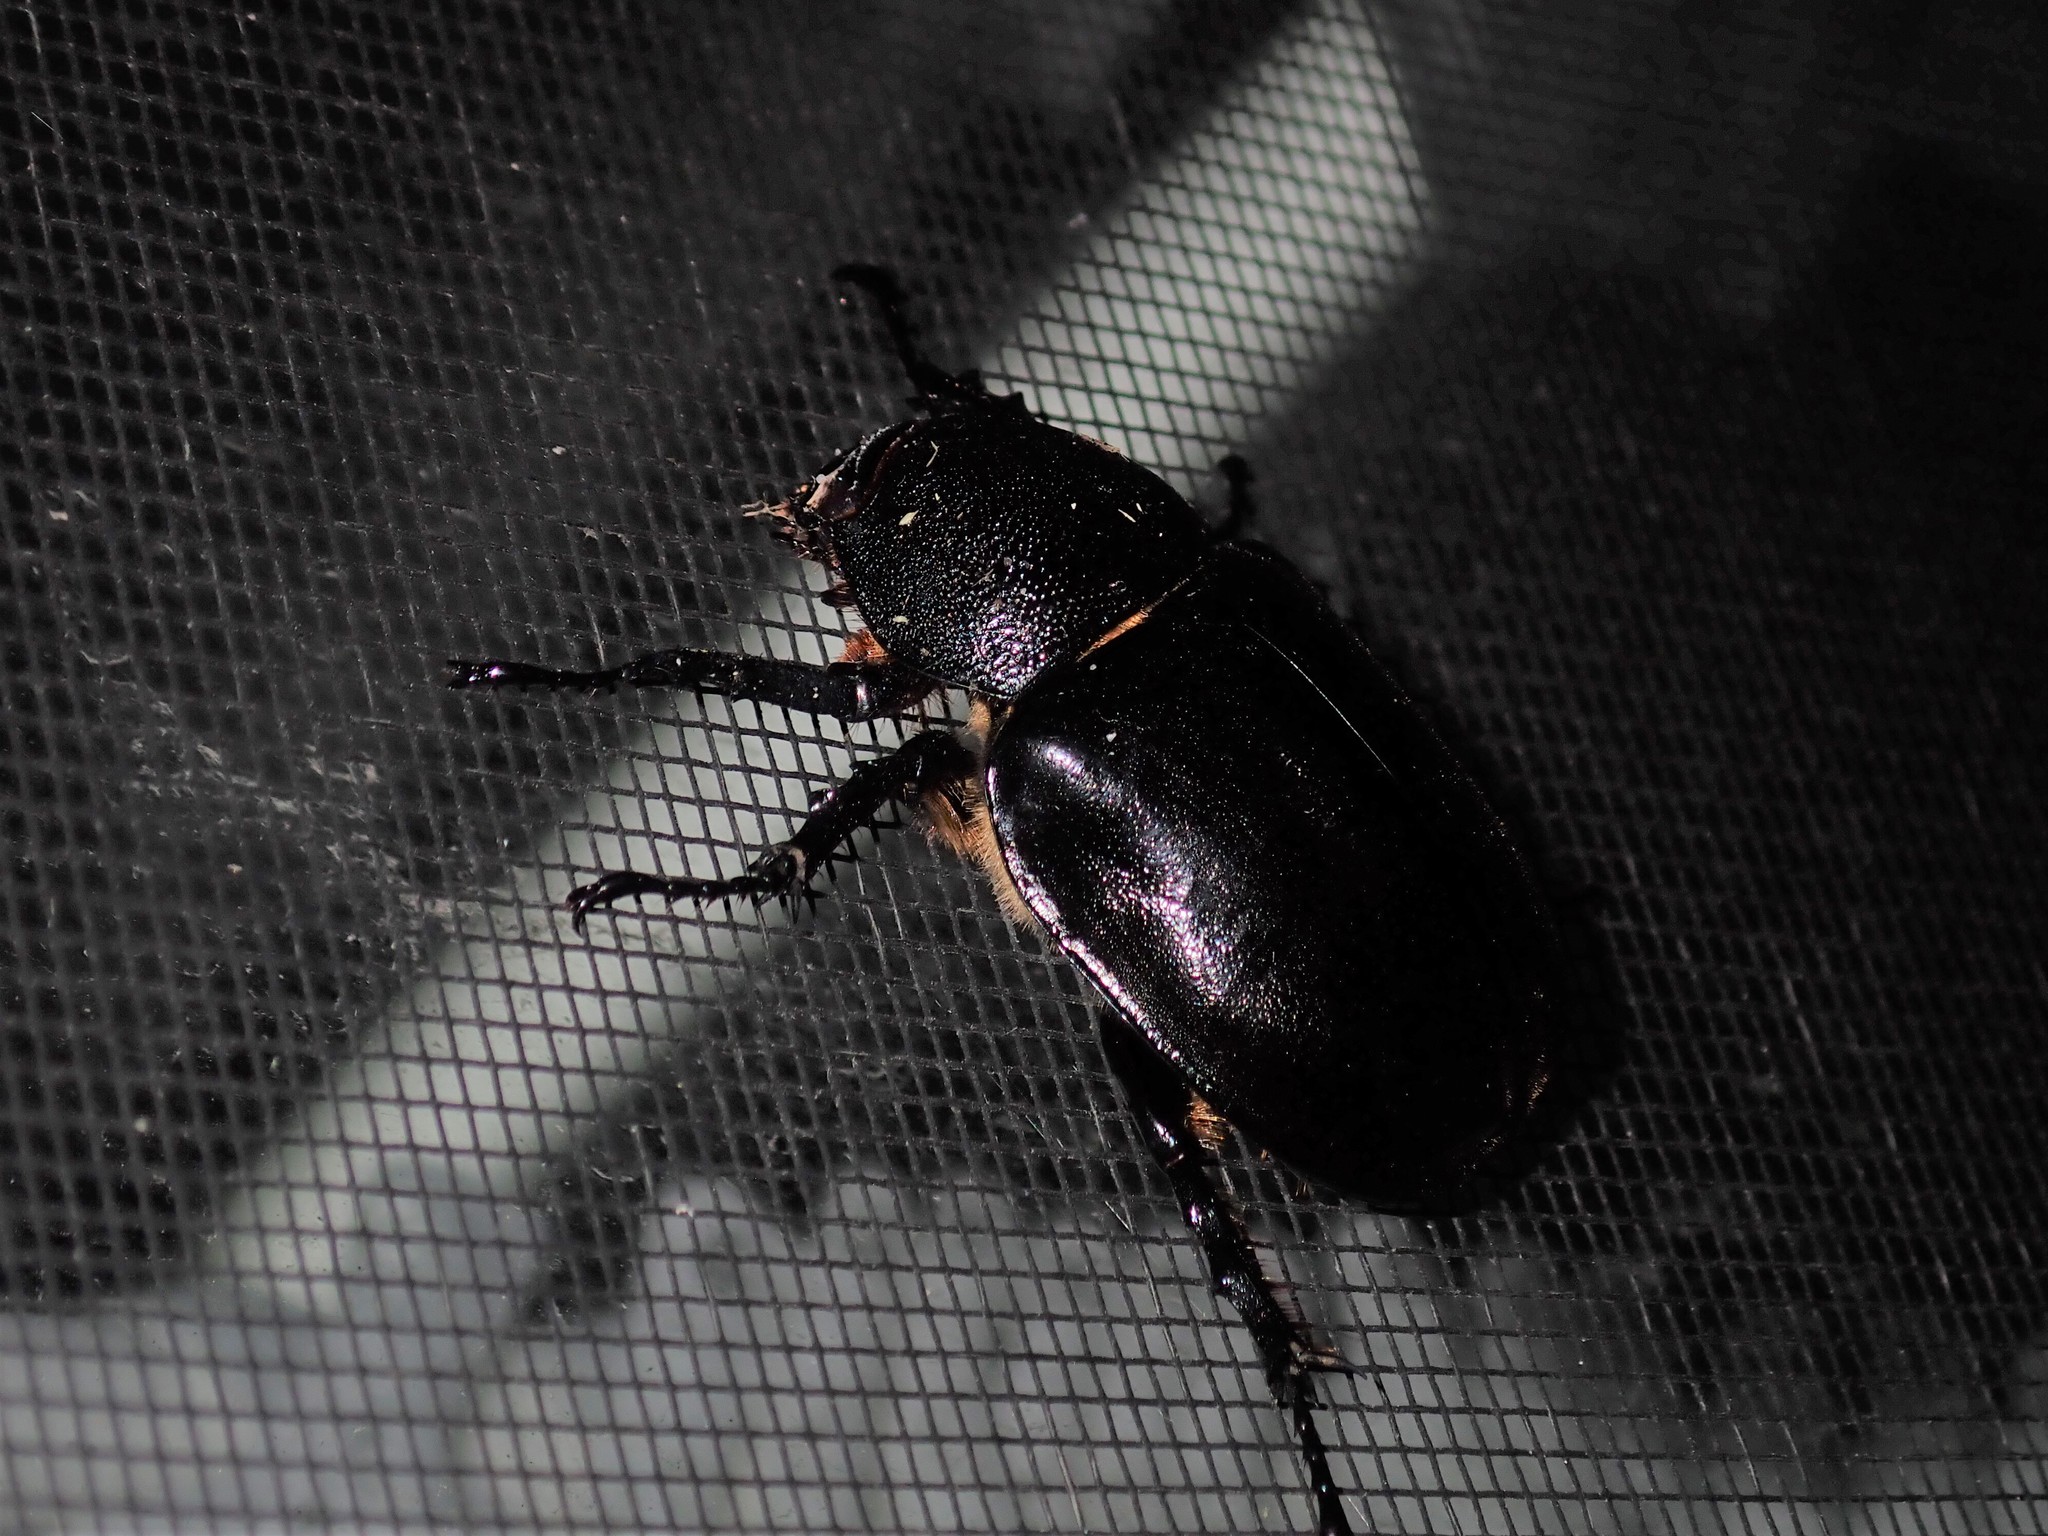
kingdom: Animalia
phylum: Arthropoda
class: Insecta
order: Coleoptera
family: Scarabaeidae
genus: Xylotrupes
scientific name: Xylotrupes australicus
